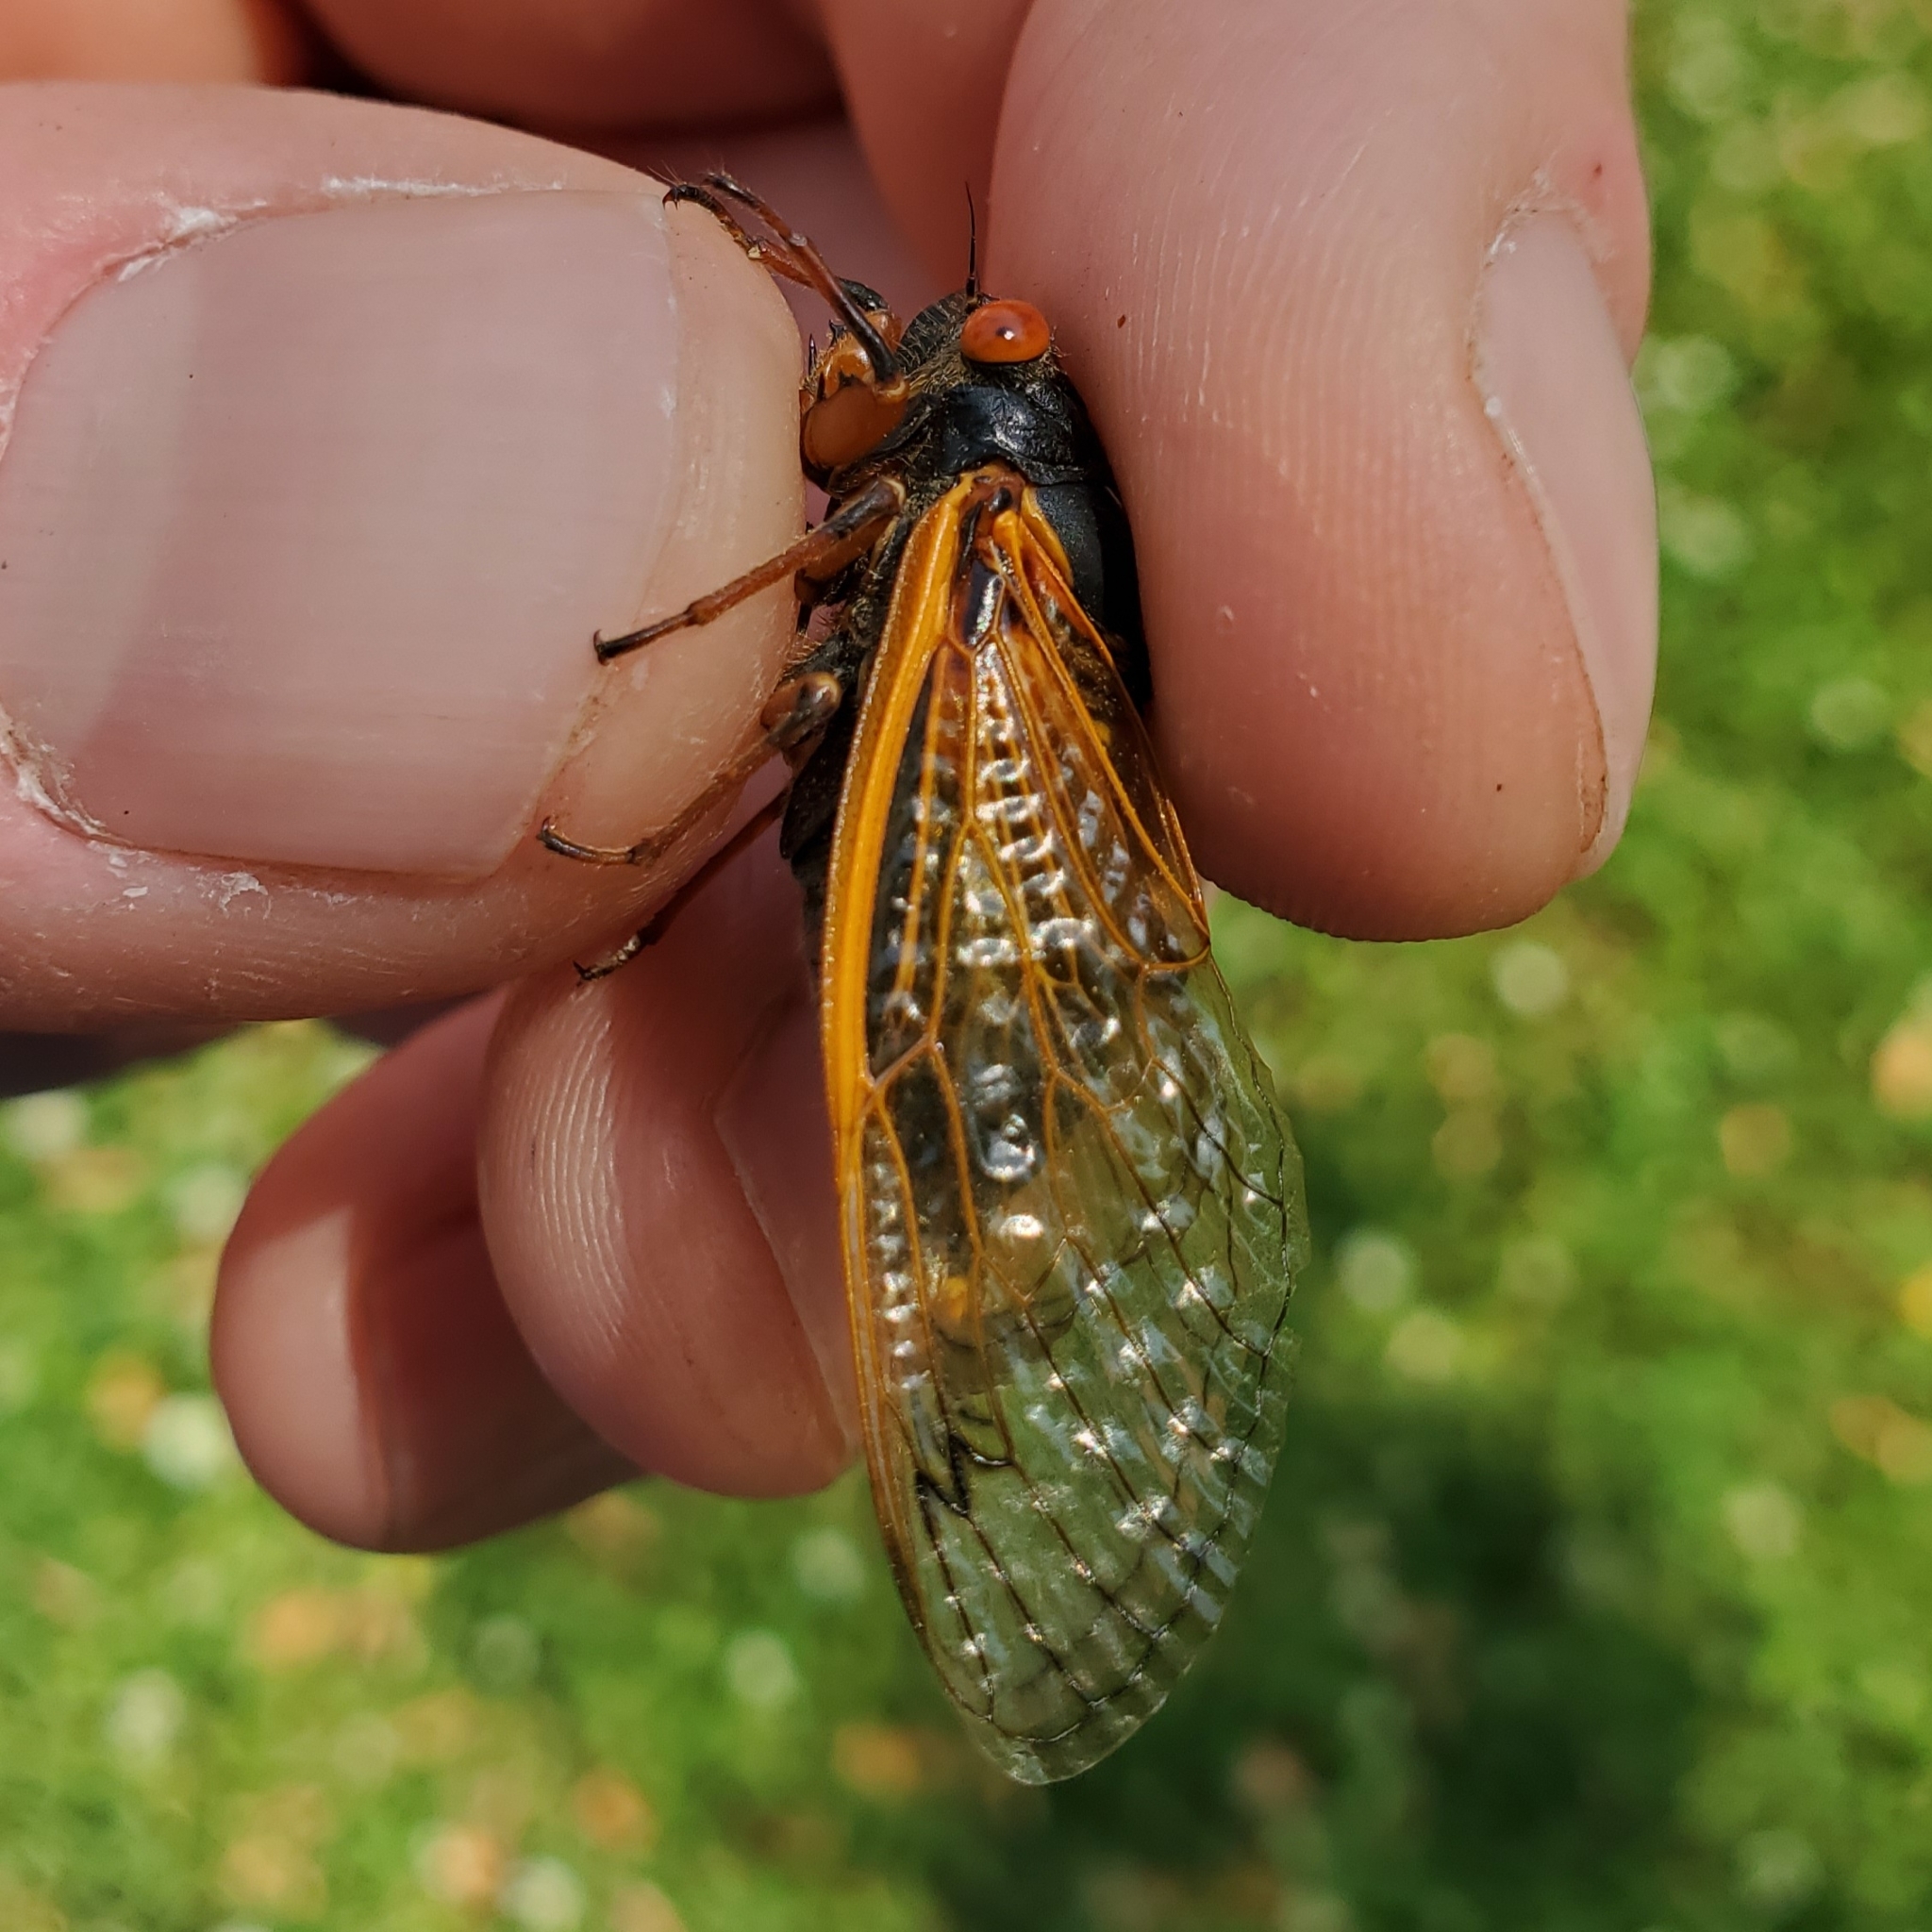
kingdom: Animalia
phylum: Arthropoda
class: Insecta
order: Hemiptera
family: Cicadidae
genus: Magicicada
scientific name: Magicicada cassini
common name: Cassin's 17-year cicada
